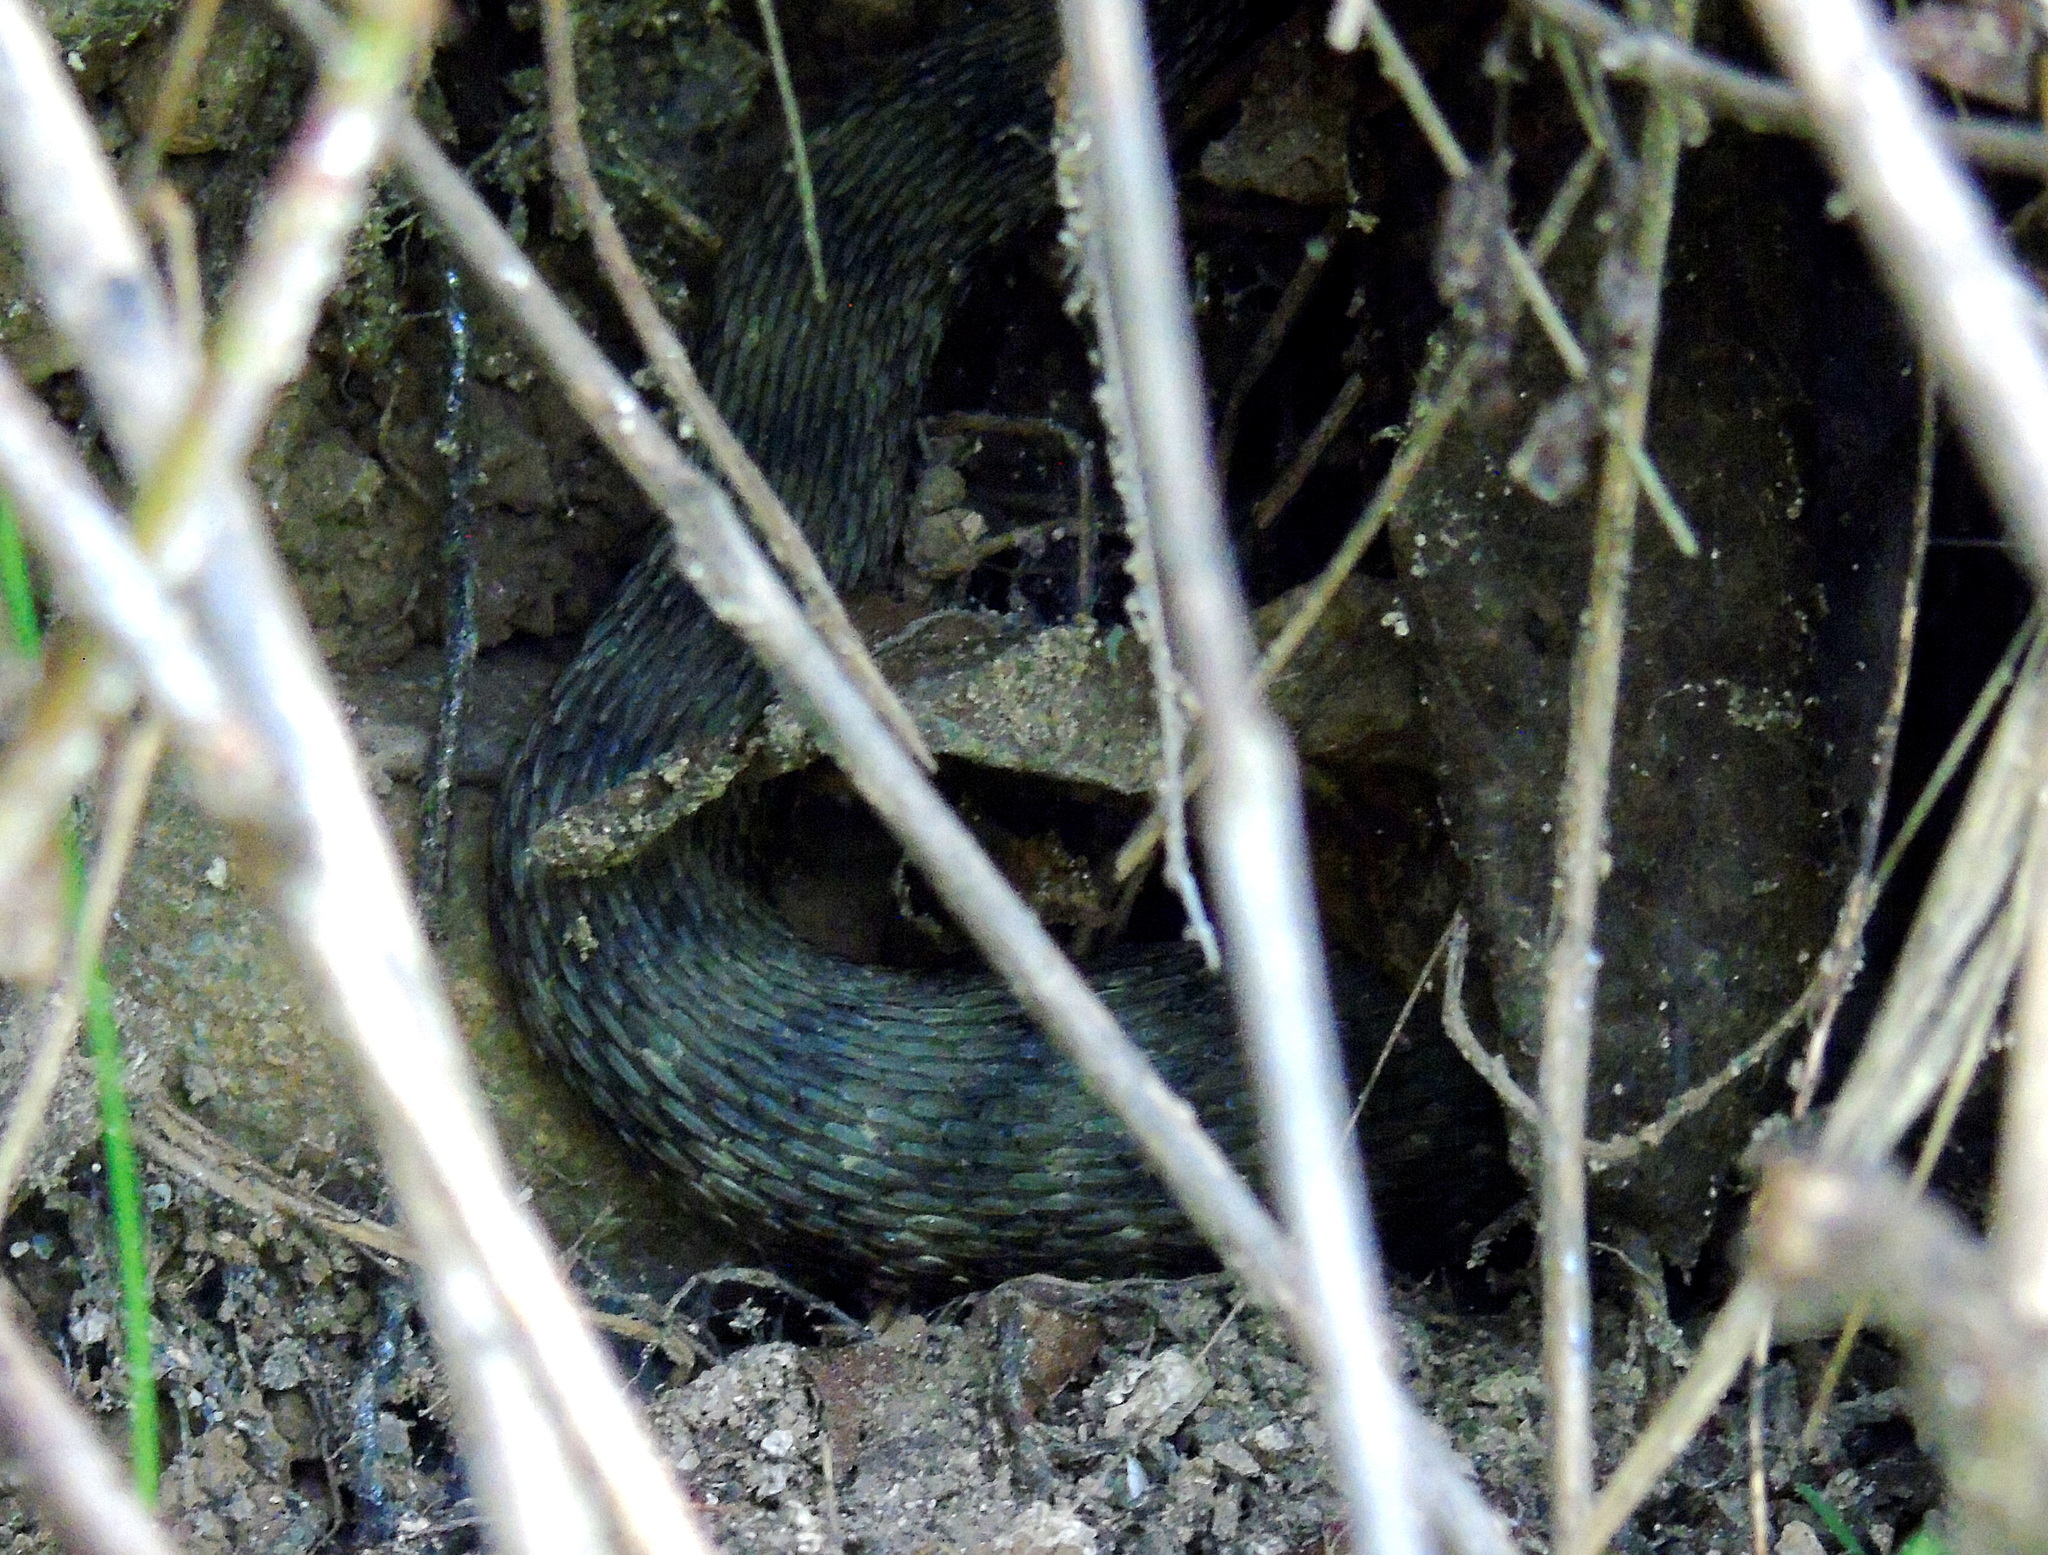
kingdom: Animalia
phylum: Chordata
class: Squamata
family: Colubridae
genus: Natrix
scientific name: Natrix tessellata
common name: Dice snake
